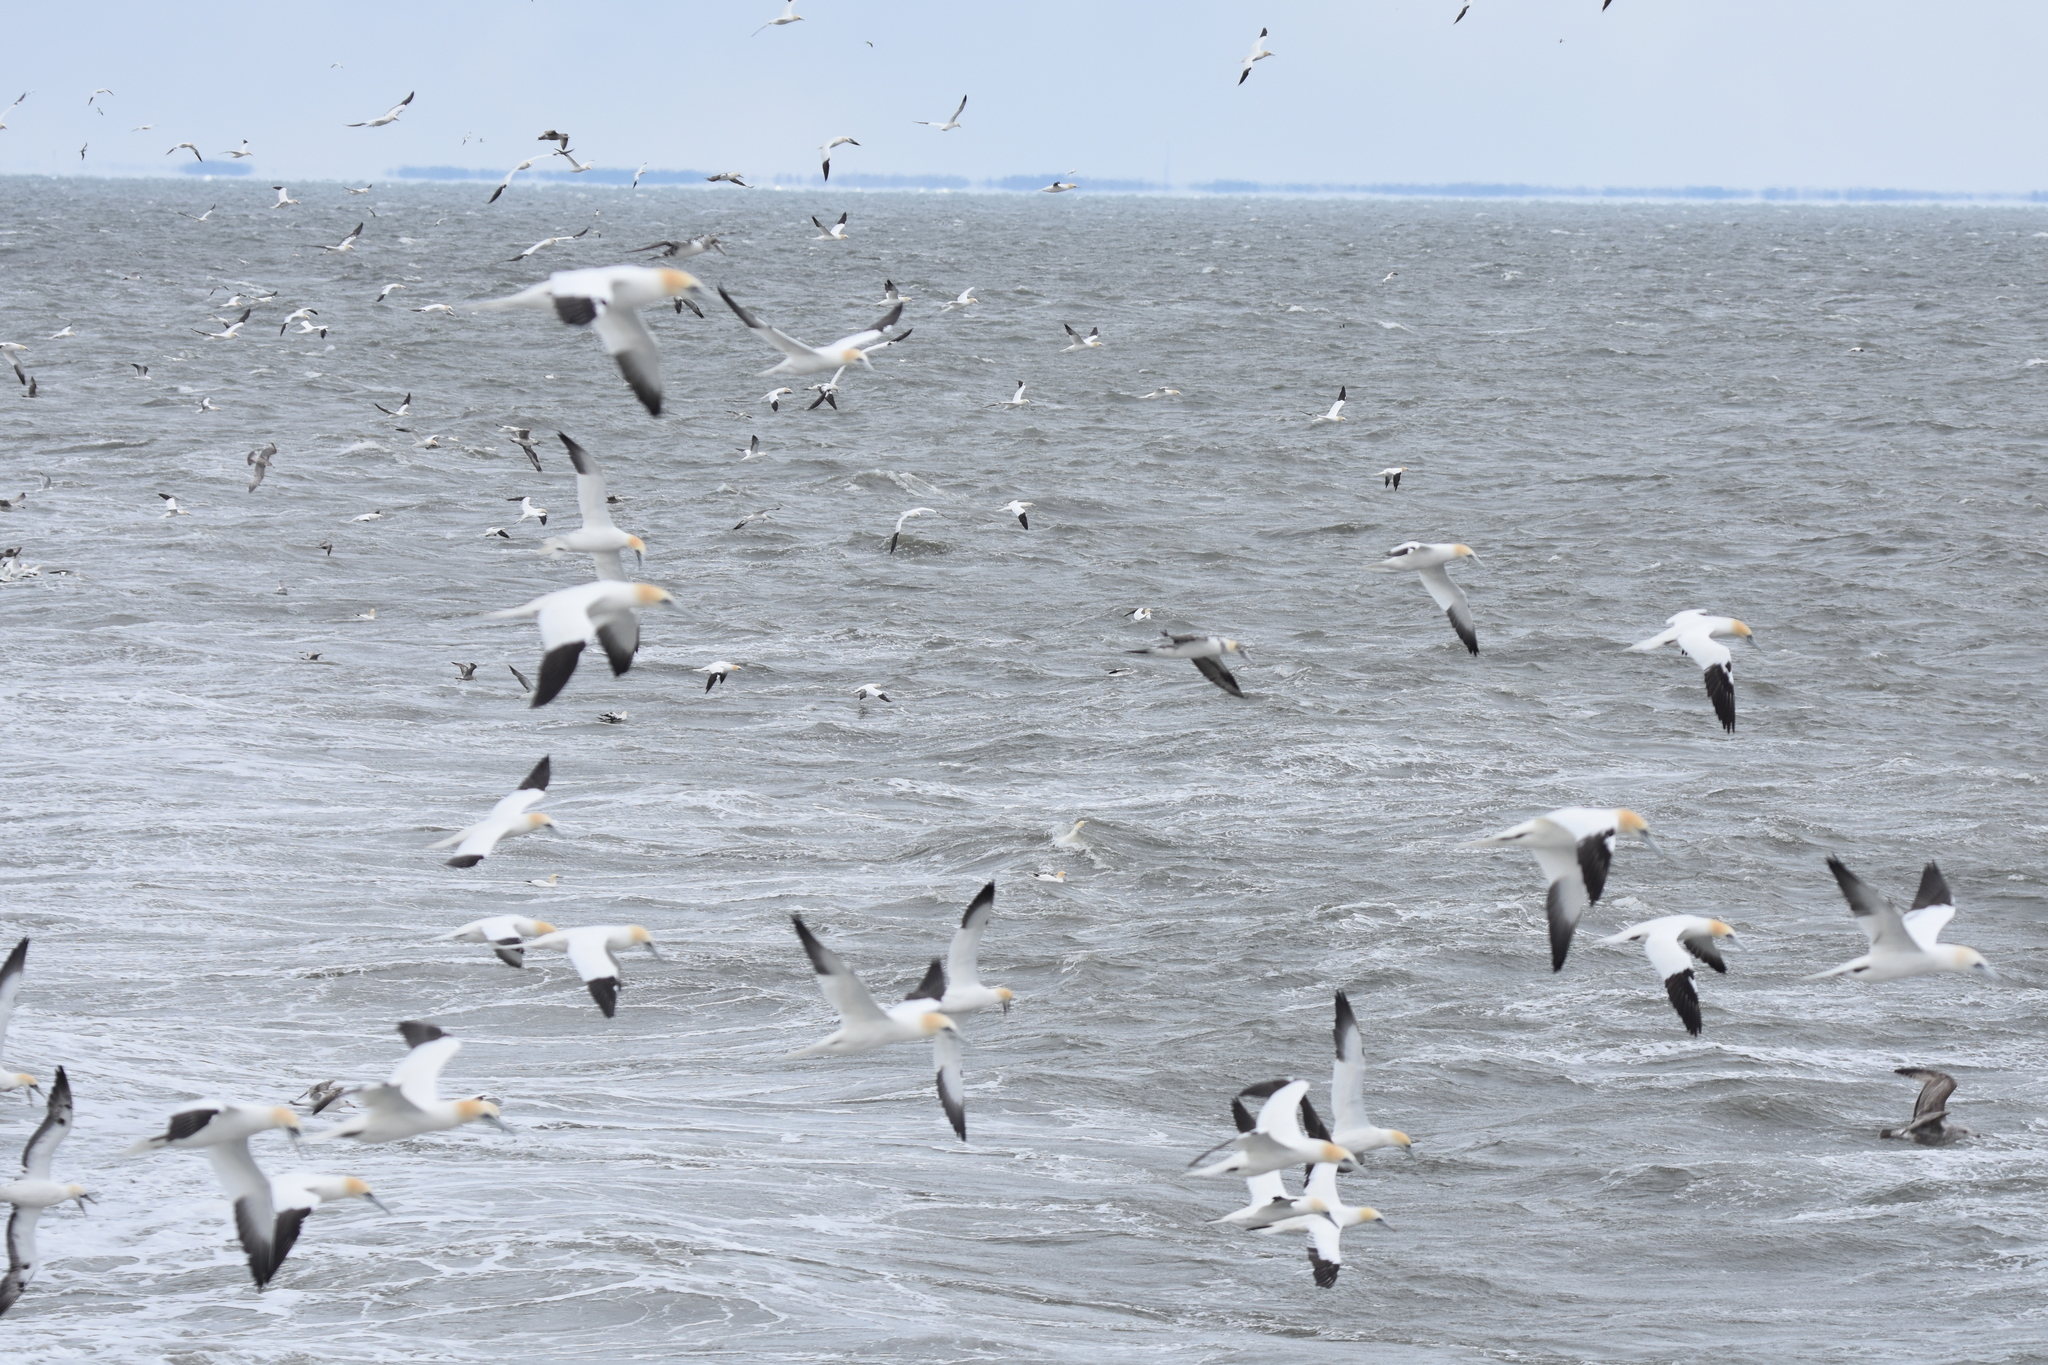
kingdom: Animalia
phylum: Chordata
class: Aves
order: Suliformes
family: Sulidae
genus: Morus
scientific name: Morus bassanus
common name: Northern gannet
